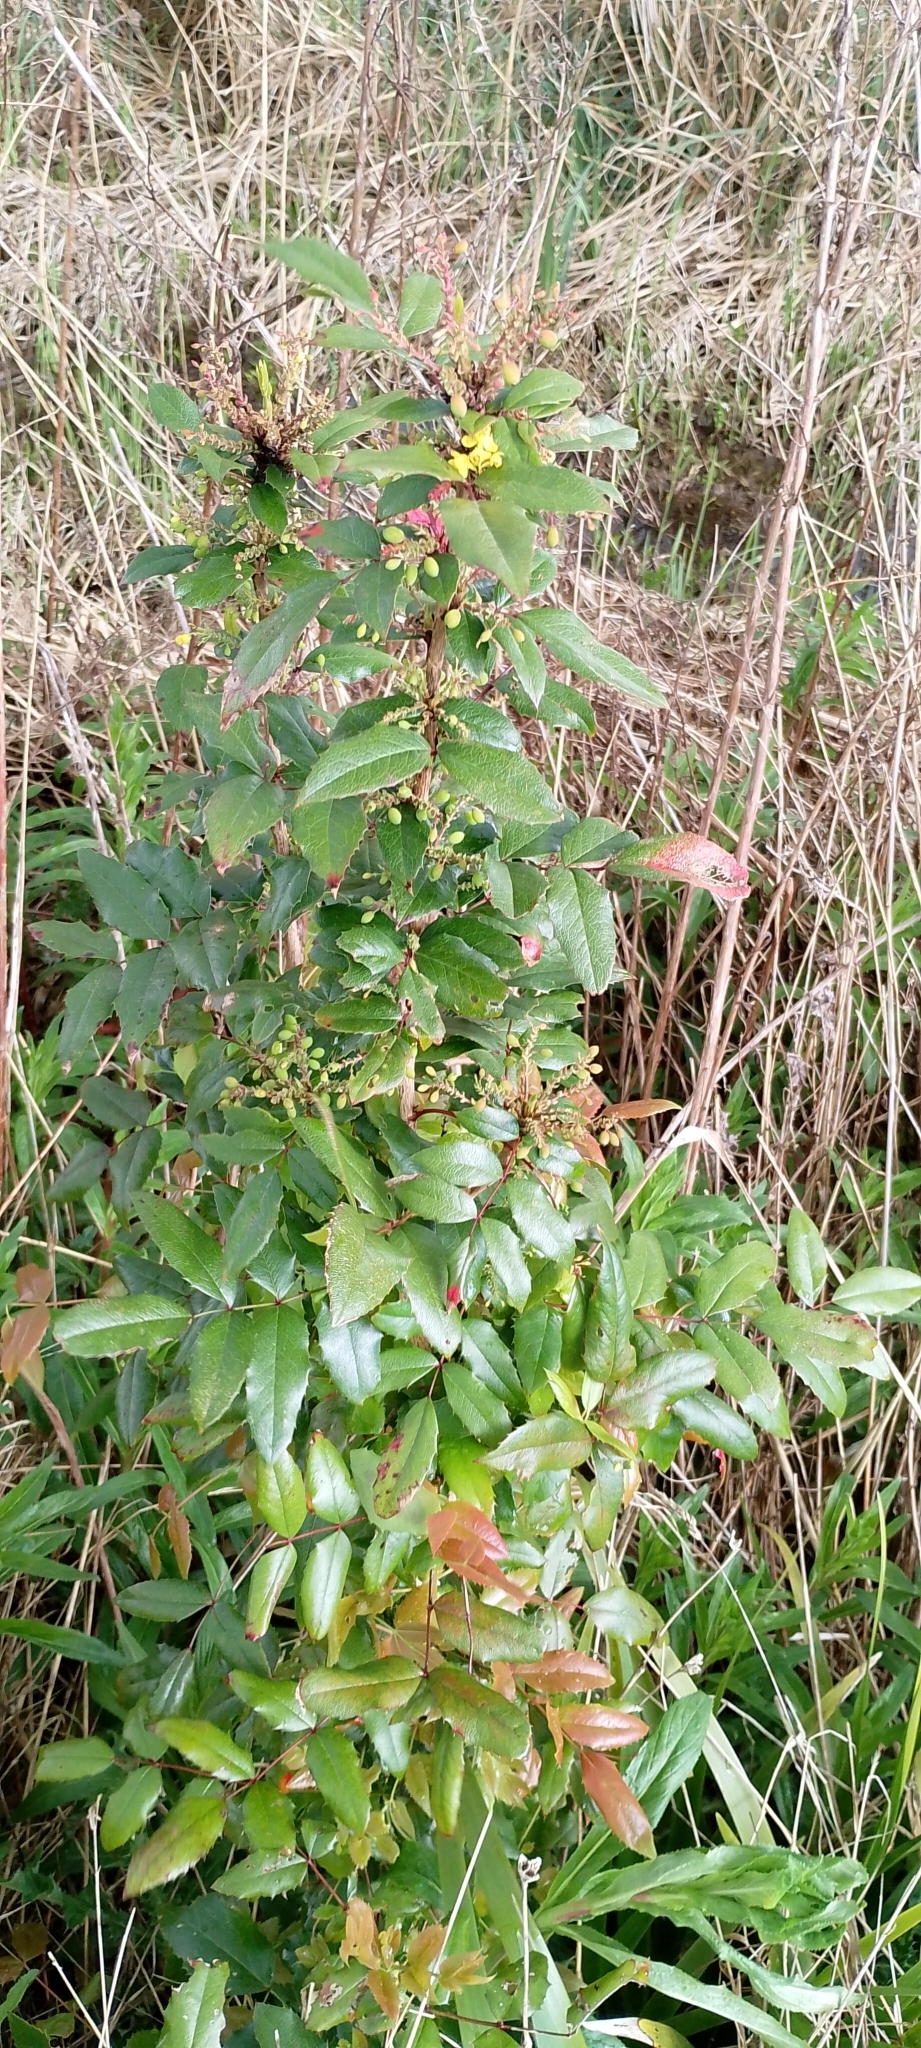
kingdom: Plantae
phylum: Tracheophyta
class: Magnoliopsida
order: Ranunculales
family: Berberidaceae
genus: Mahonia
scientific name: Mahonia aquifolium
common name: Oregon-grape
